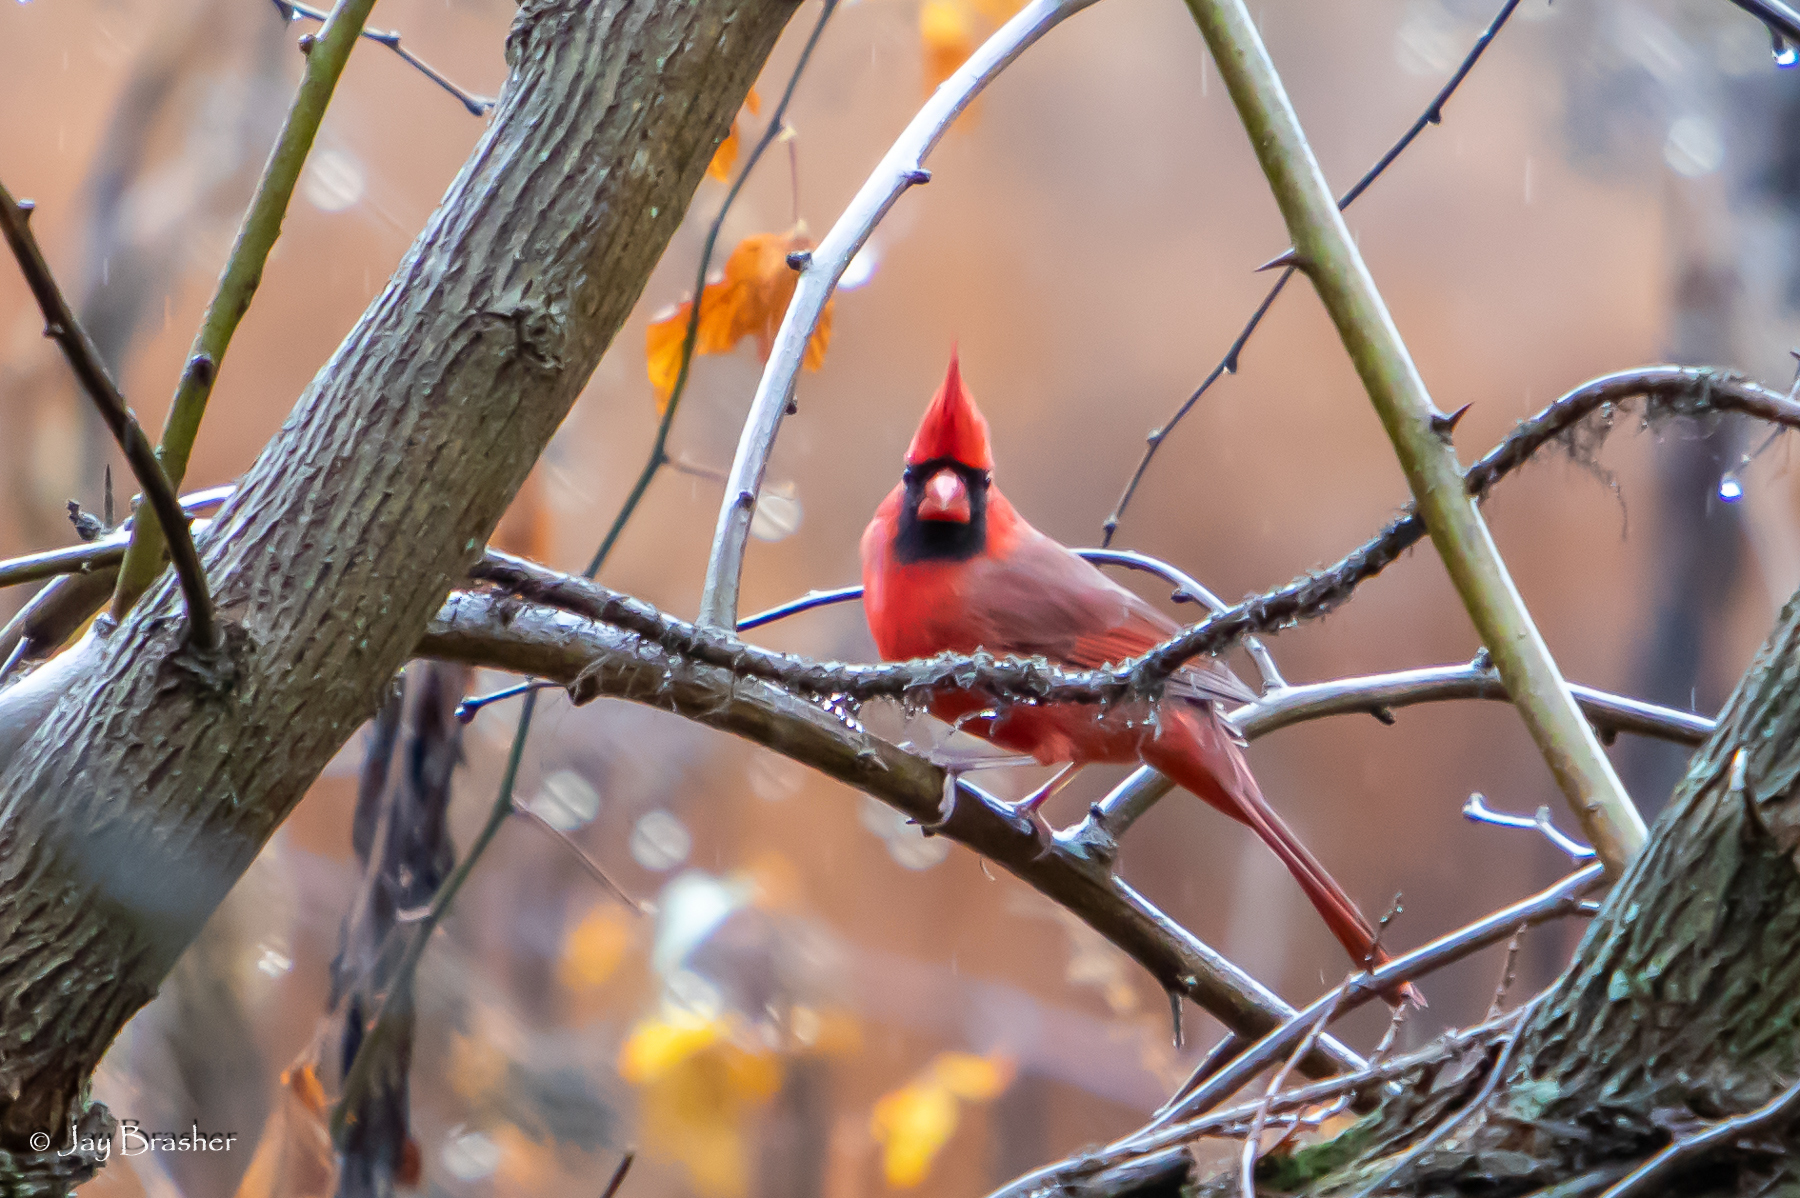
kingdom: Animalia
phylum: Chordata
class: Aves
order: Passeriformes
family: Cardinalidae
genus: Cardinalis
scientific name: Cardinalis cardinalis
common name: Northern cardinal
